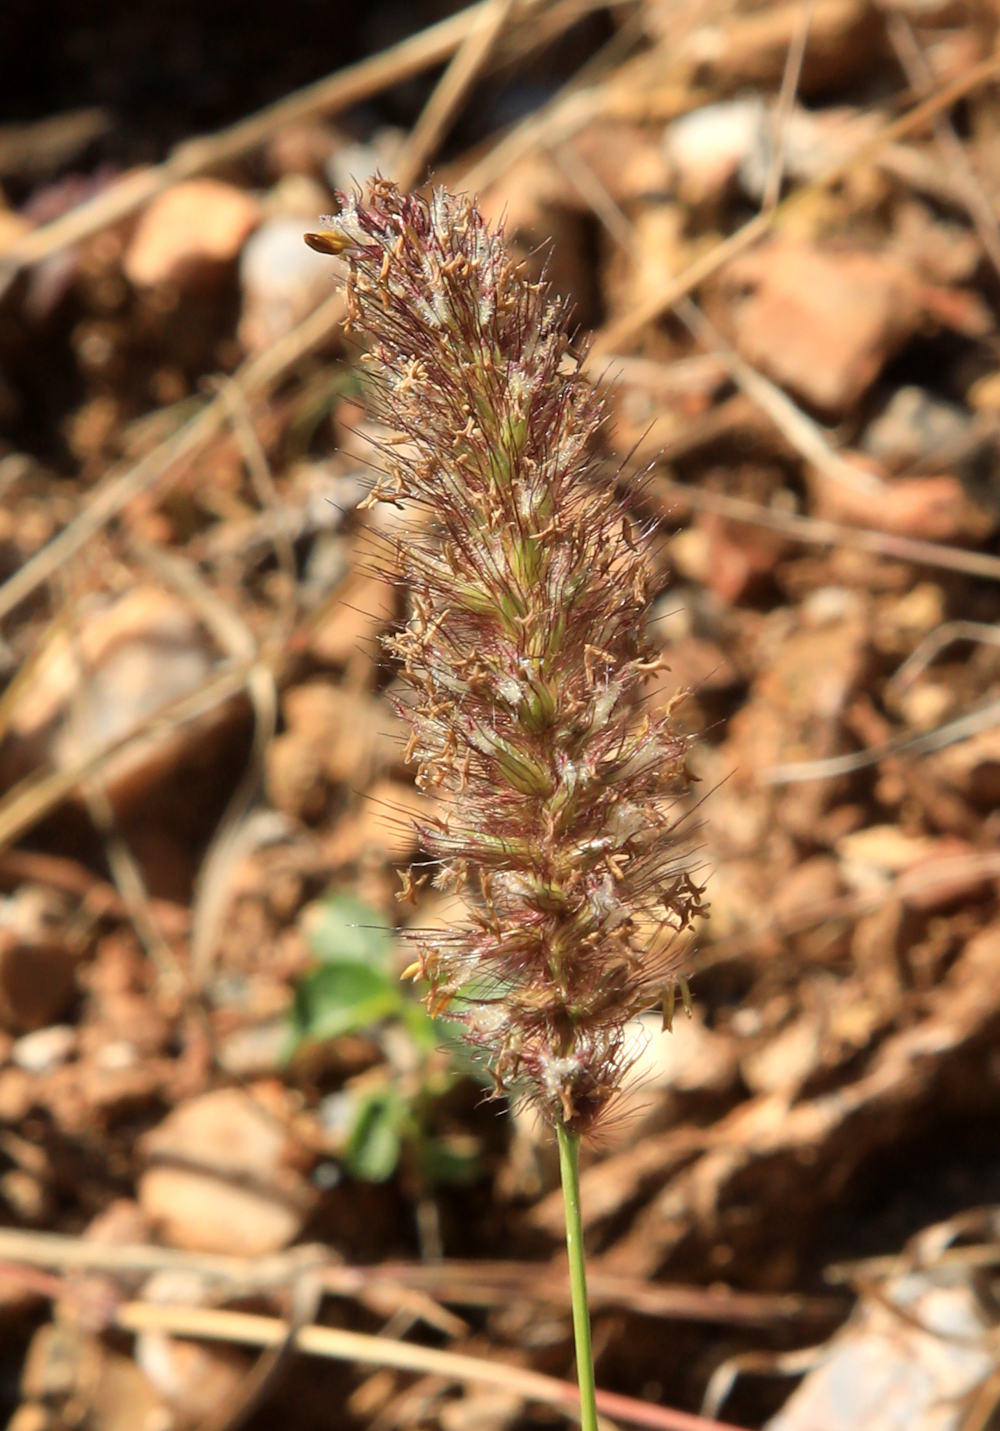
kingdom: Plantae
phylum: Tracheophyta
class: Liliopsida
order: Poales
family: Poaceae
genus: Cenchrus
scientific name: Cenchrus ciliaris
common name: Buffelgrass
